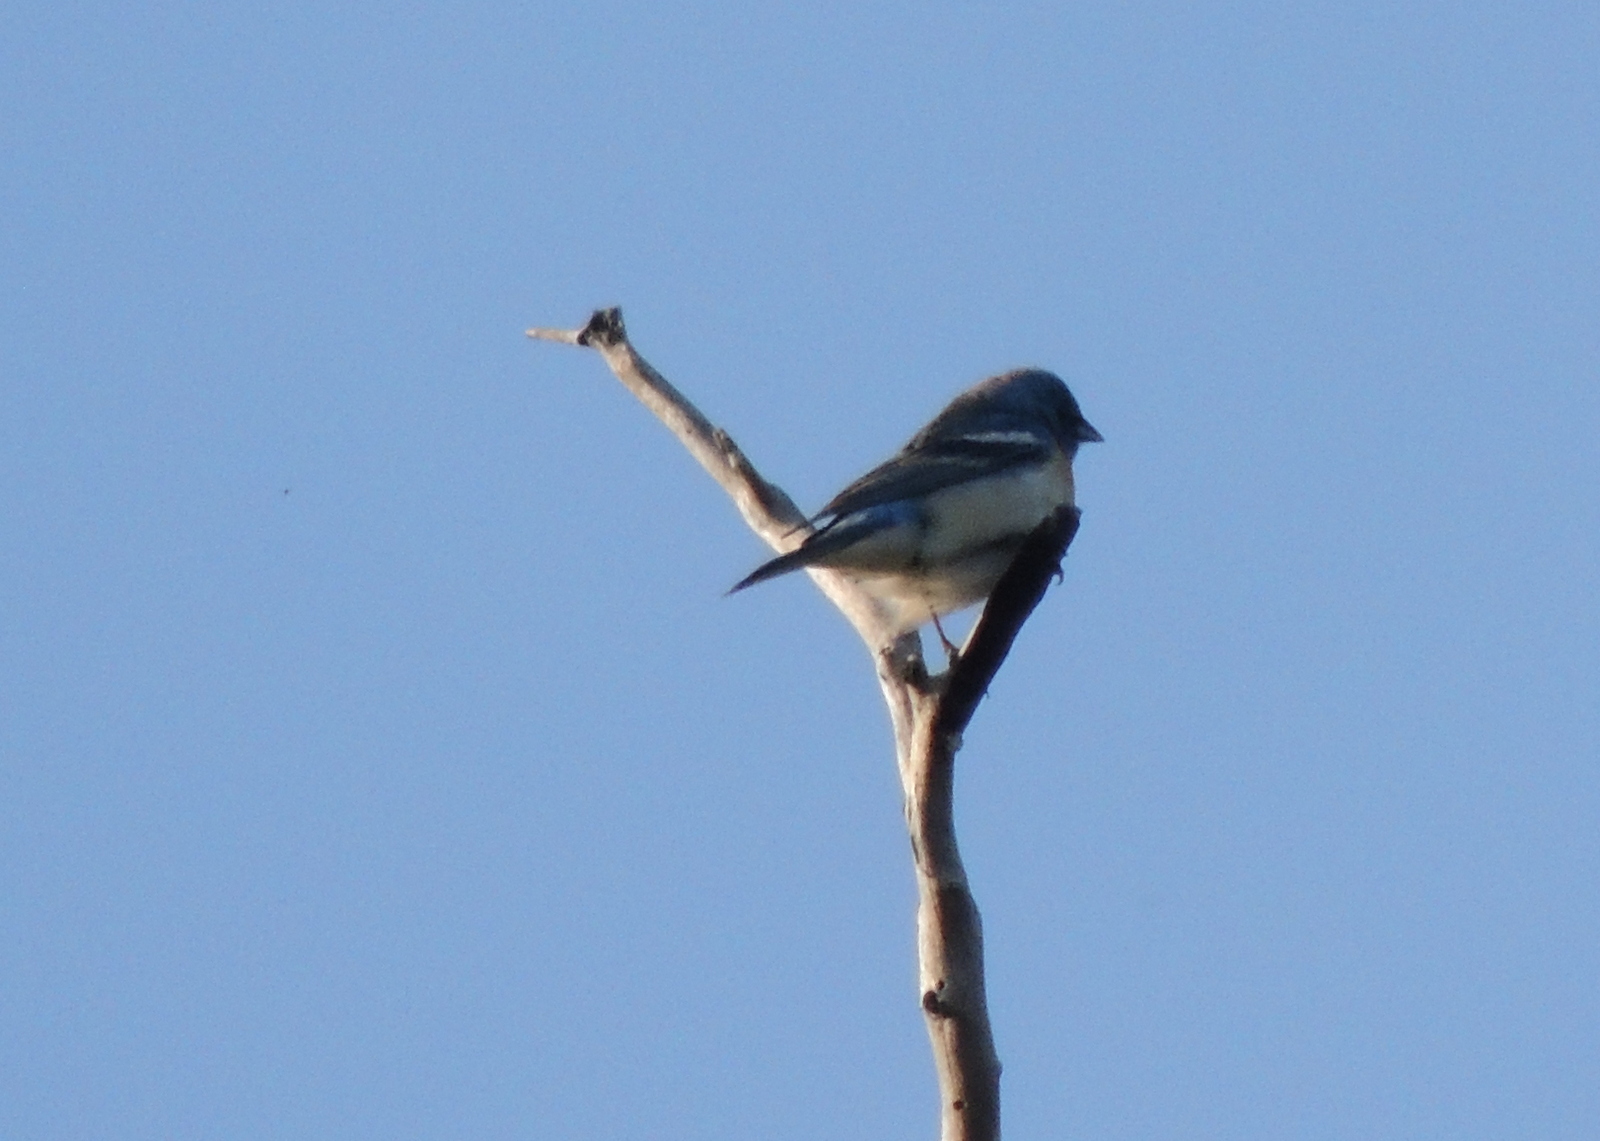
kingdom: Animalia
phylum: Chordata
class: Aves
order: Passeriformes
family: Cardinalidae
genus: Passerina
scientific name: Passerina amoena
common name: Lazuli bunting
